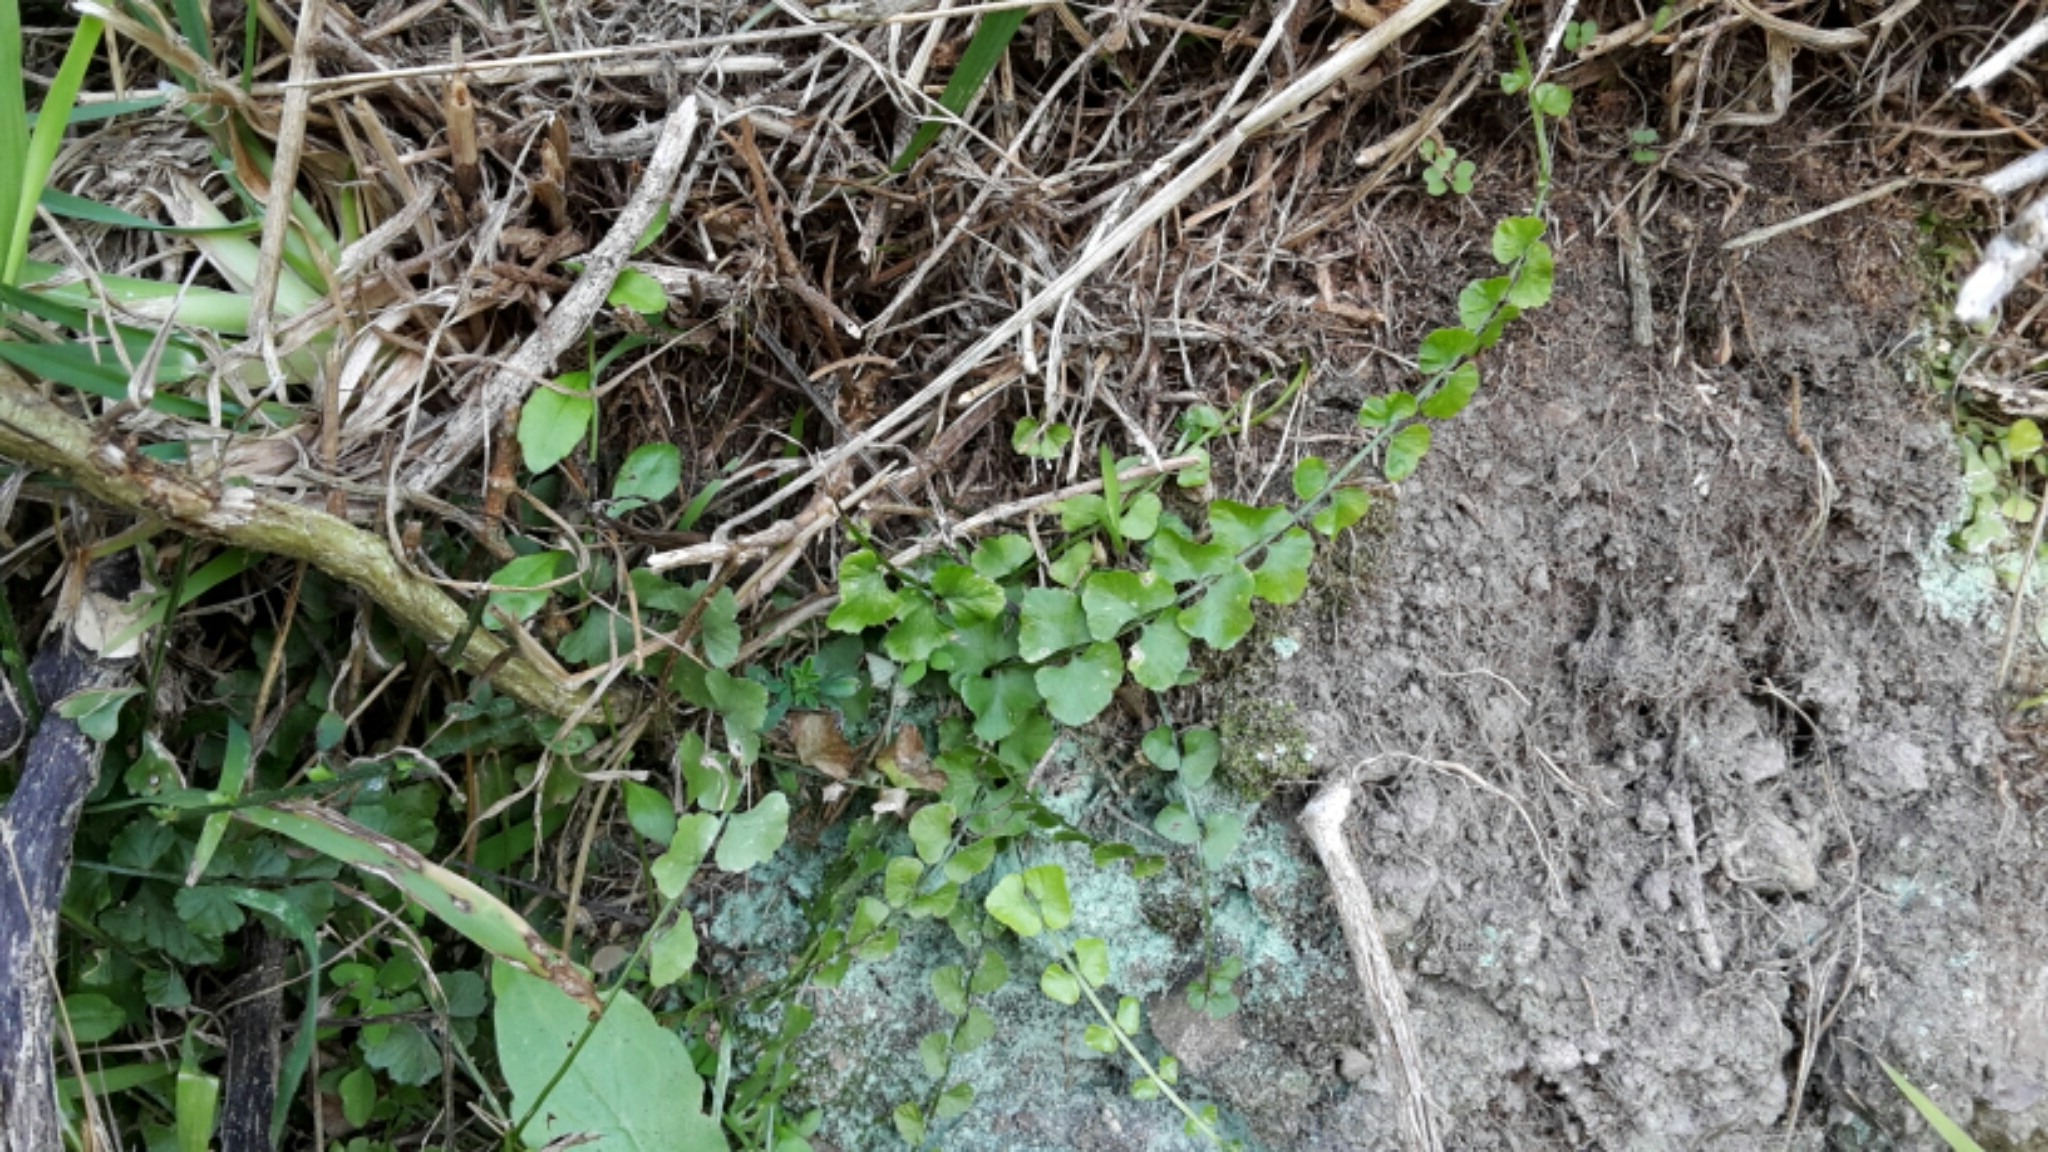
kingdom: Plantae
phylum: Tracheophyta
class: Polypodiopsida
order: Polypodiales
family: Aspleniaceae
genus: Asplenium
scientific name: Asplenium flabellifolium
